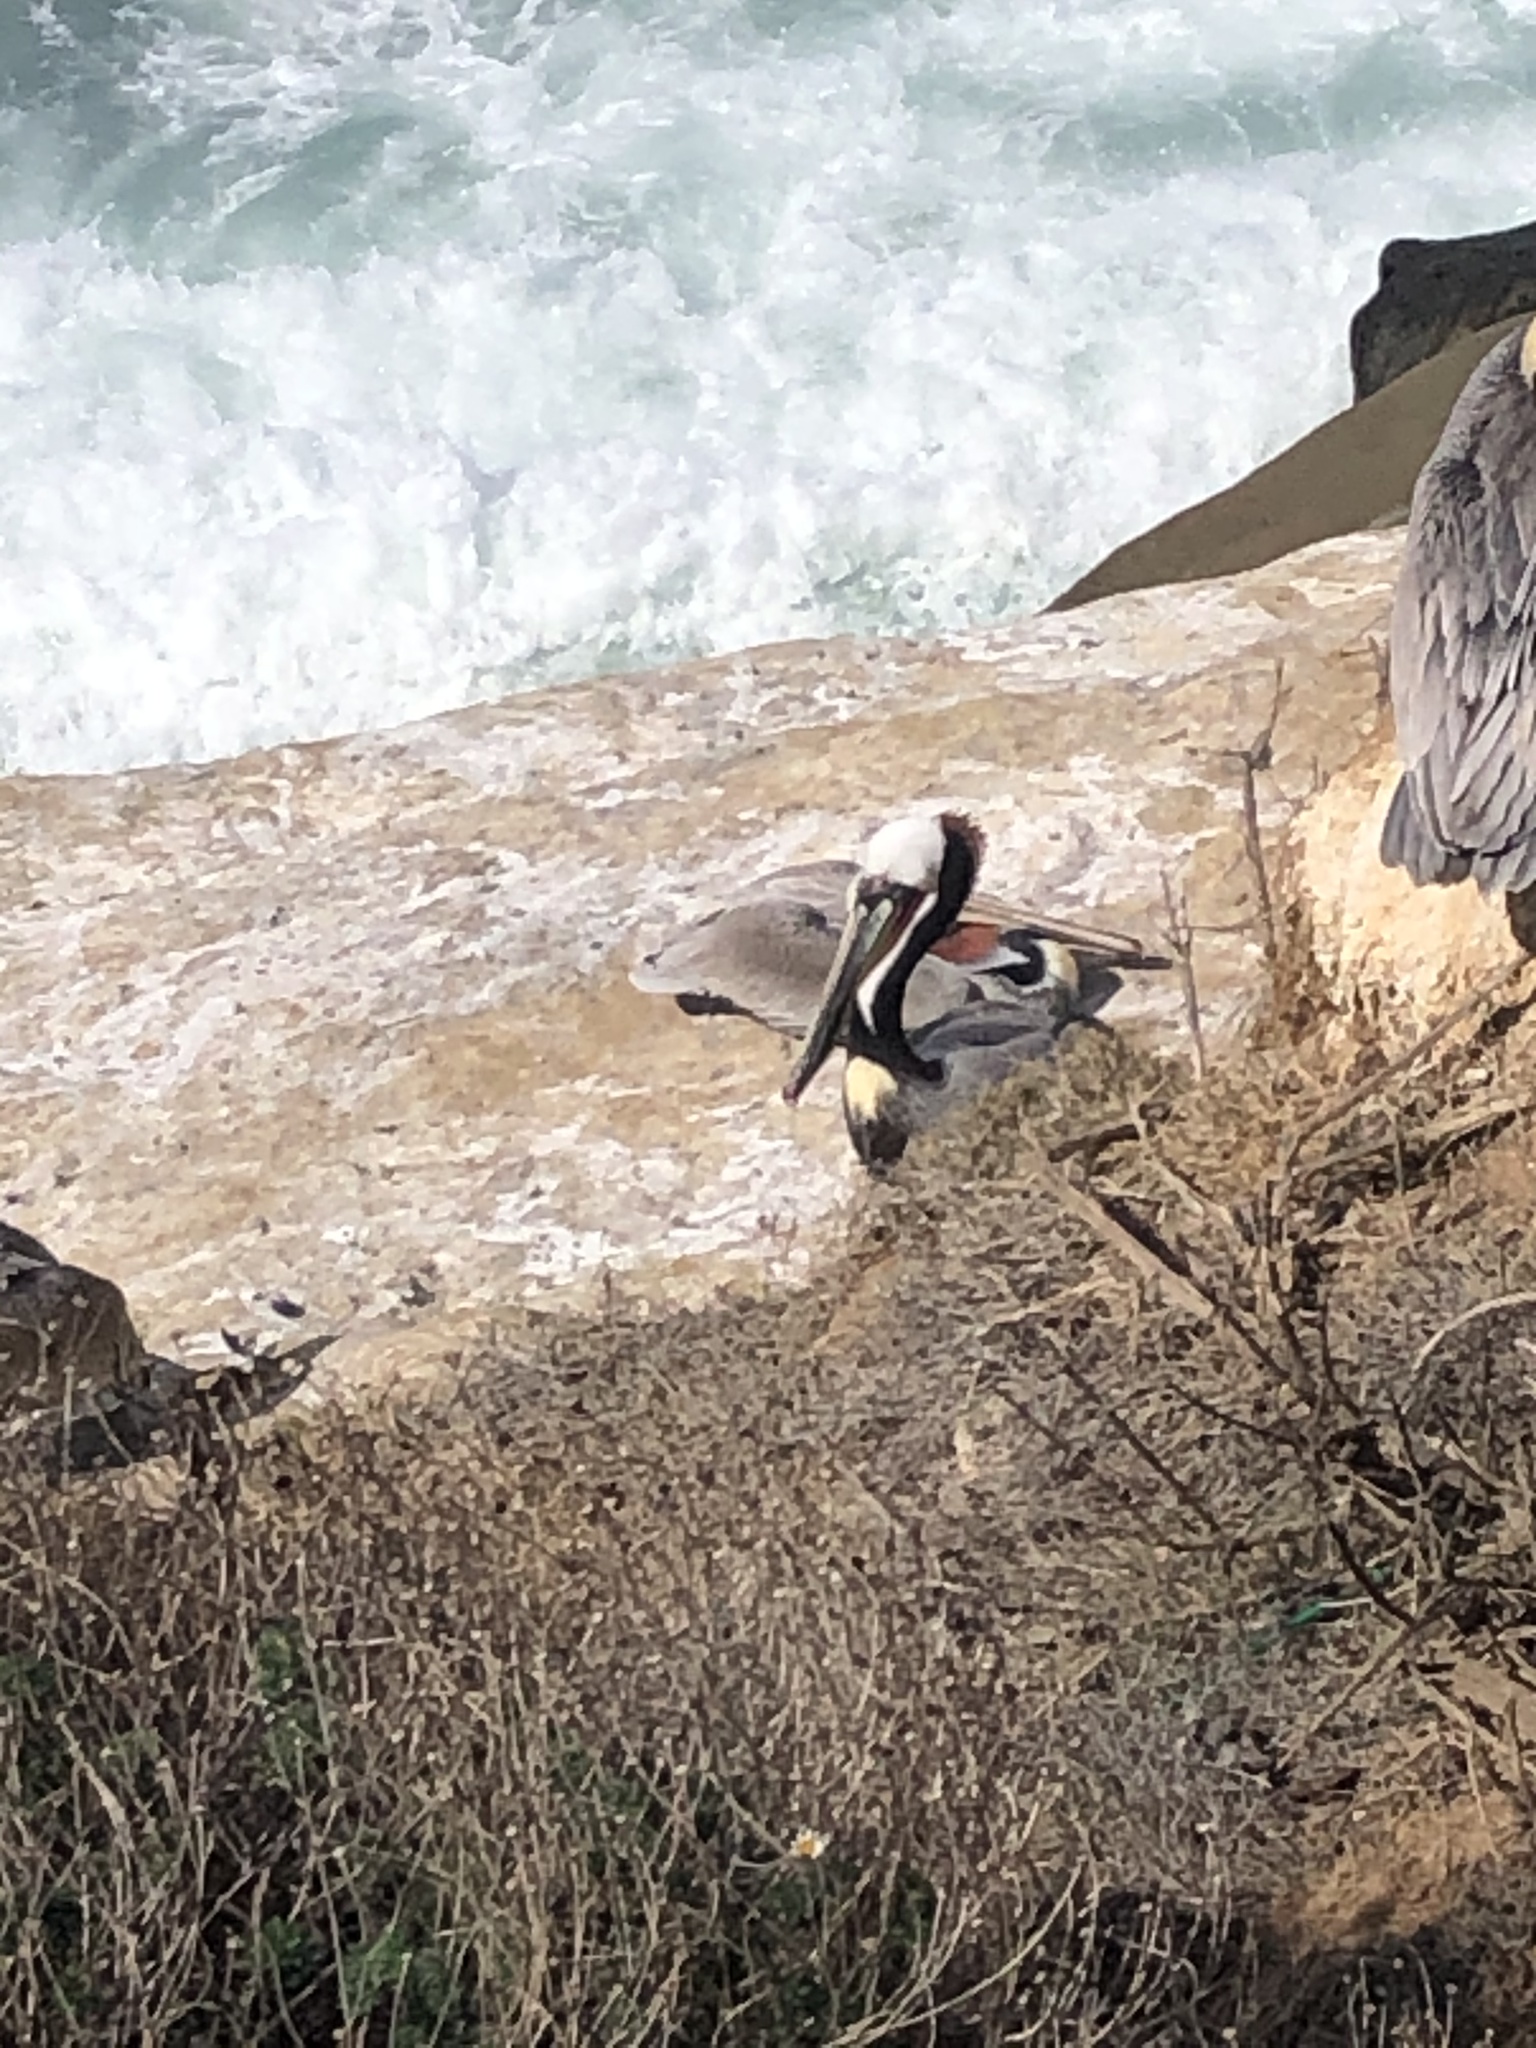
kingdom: Animalia
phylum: Chordata
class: Aves
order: Pelecaniformes
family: Pelecanidae
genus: Pelecanus
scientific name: Pelecanus occidentalis
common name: Brown pelican
